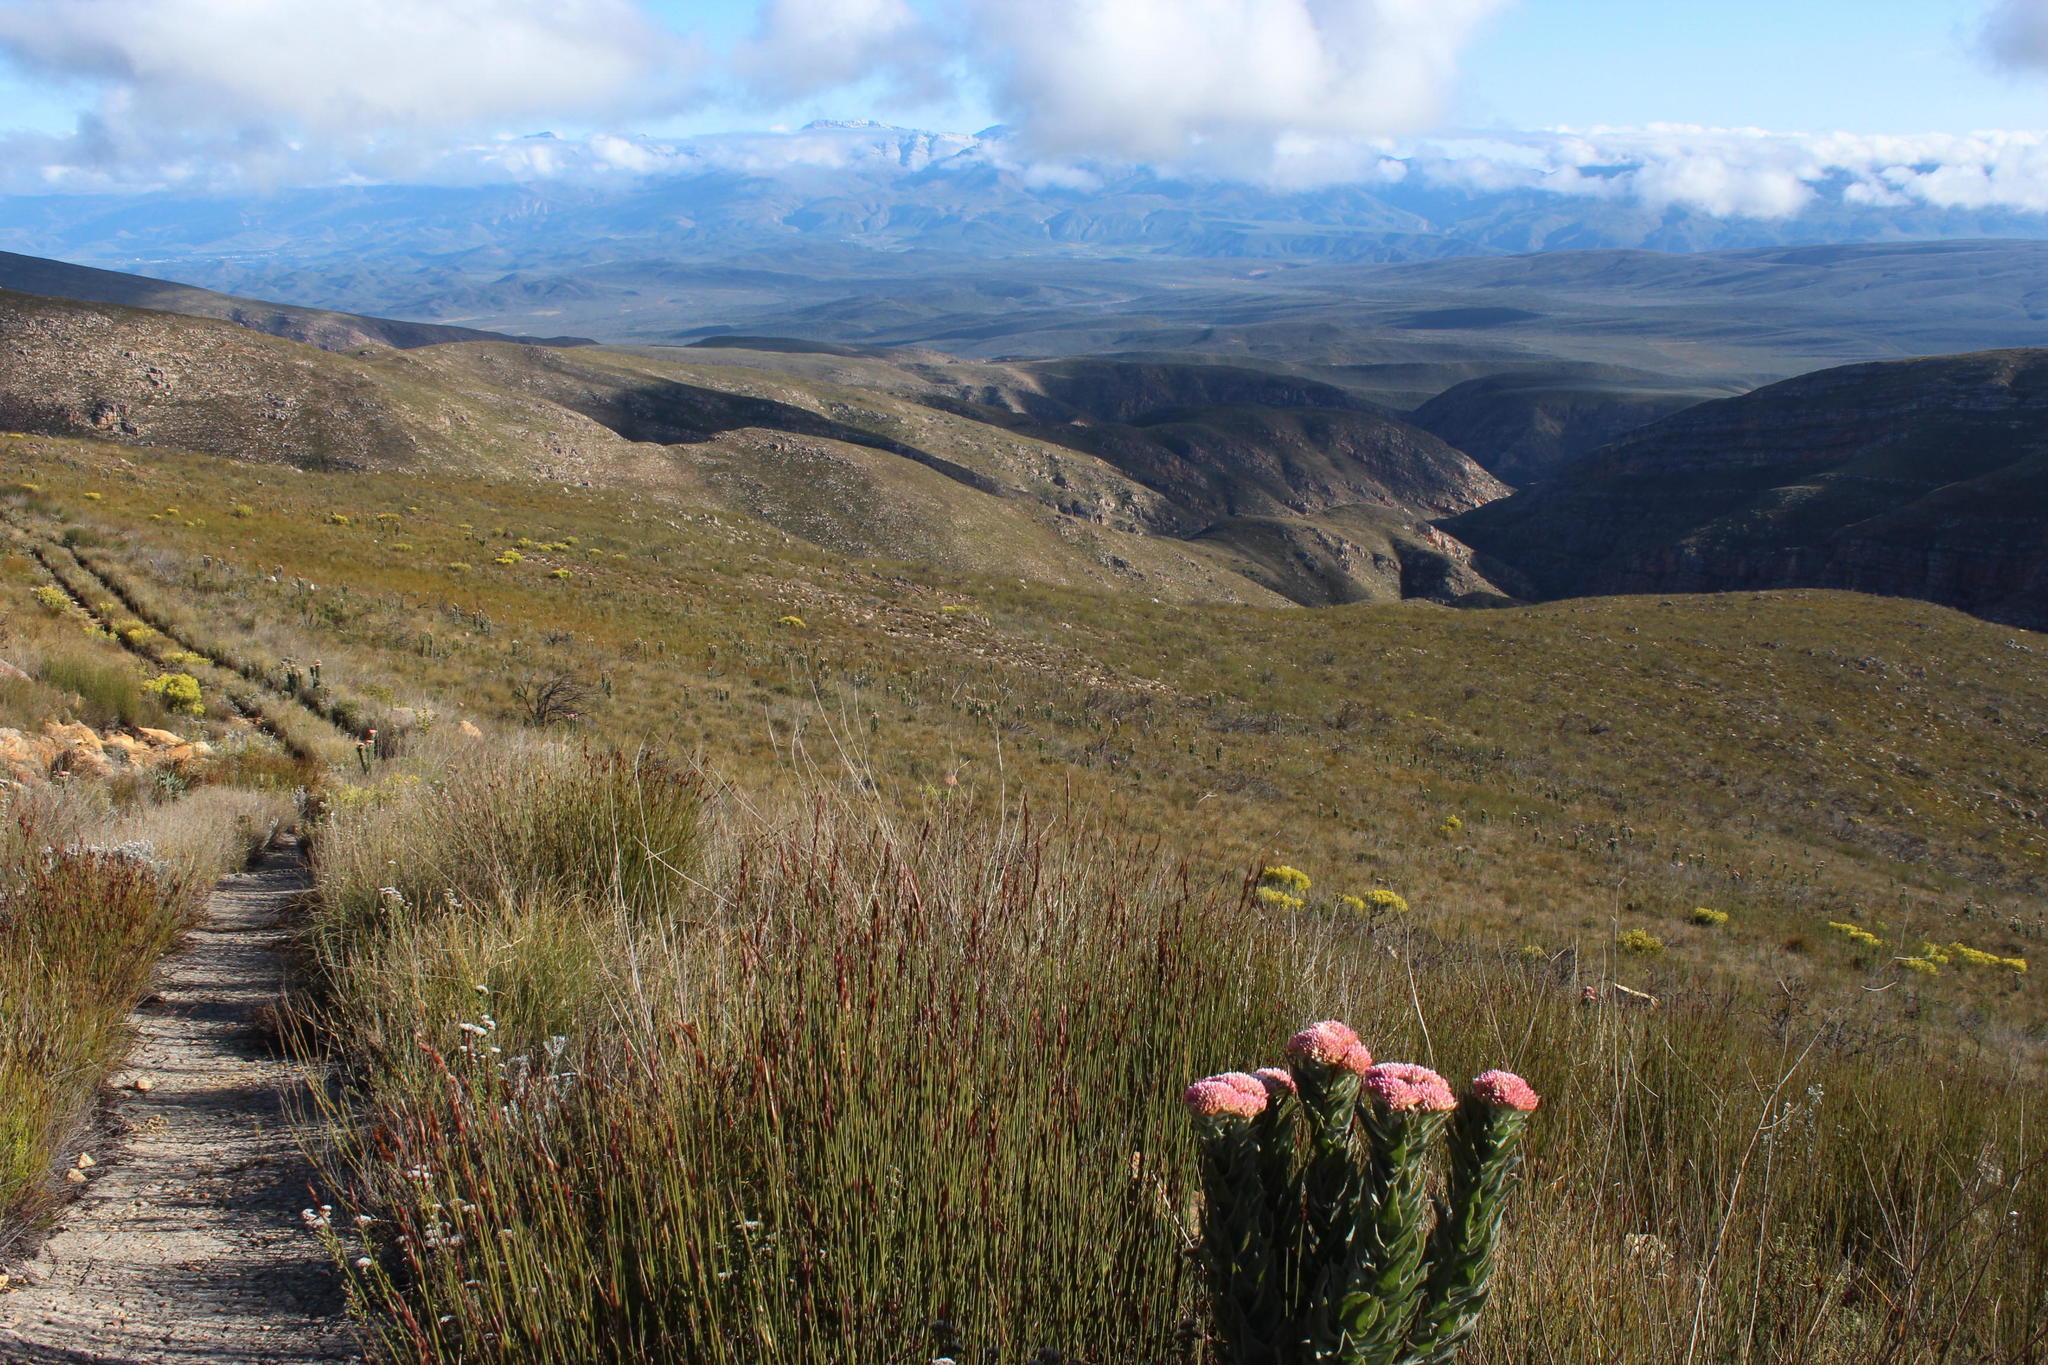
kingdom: Plantae
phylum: Tracheophyta
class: Magnoliopsida
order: Asterales
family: Asteraceae
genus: Syncarpha
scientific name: Syncarpha milleflora
